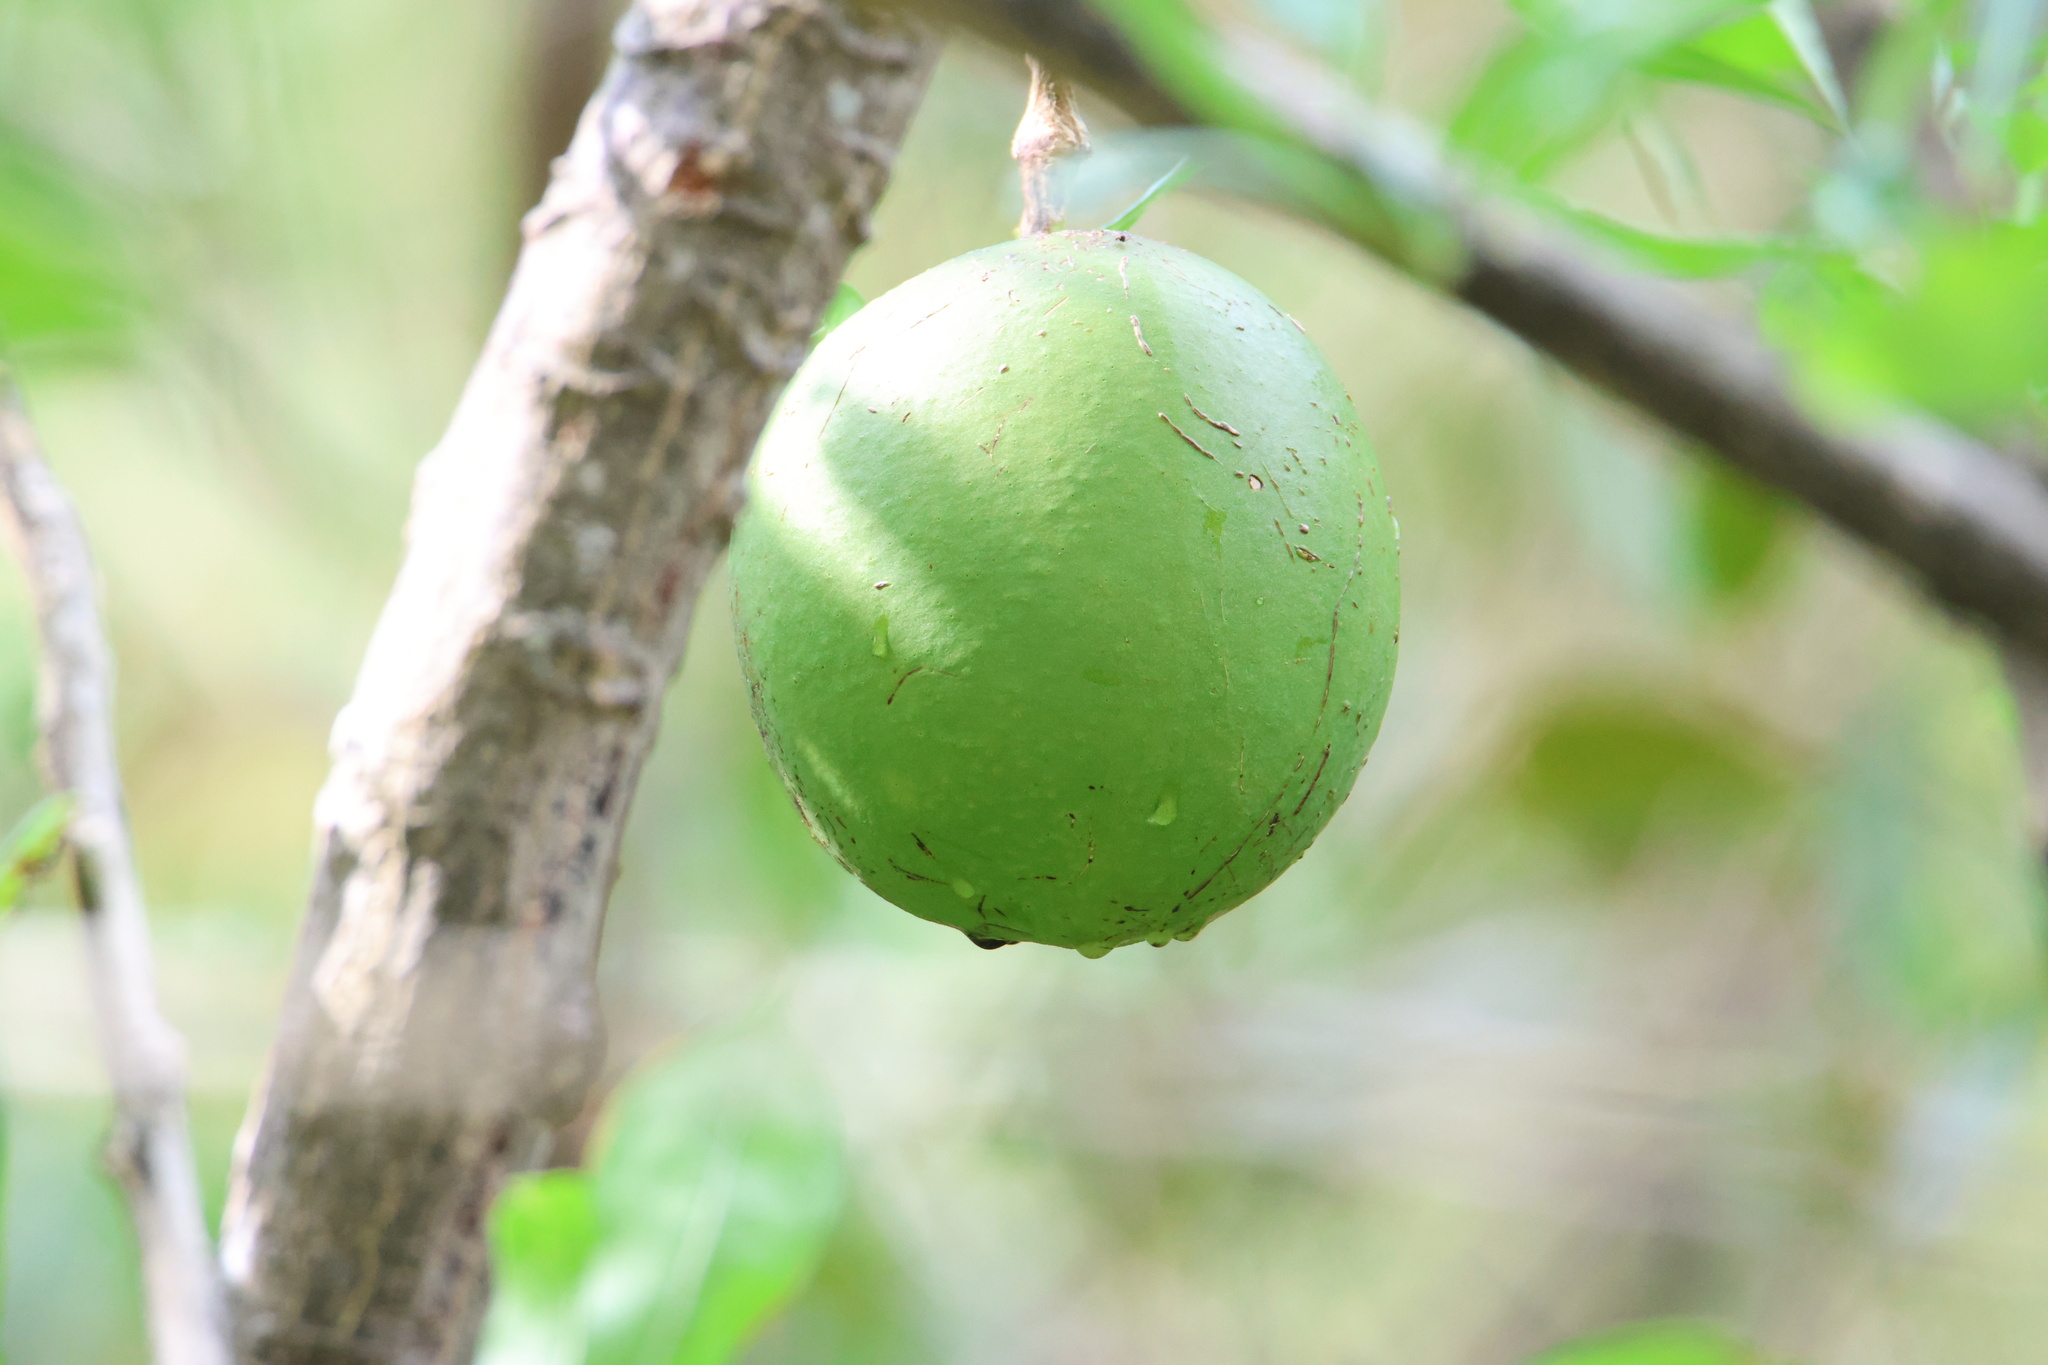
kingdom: Plantae
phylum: Tracheophyta
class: Magnoliopsida
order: Lamiales
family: Bignoniaceae
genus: Crescentia
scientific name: Crescentia cujete
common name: Calabash
